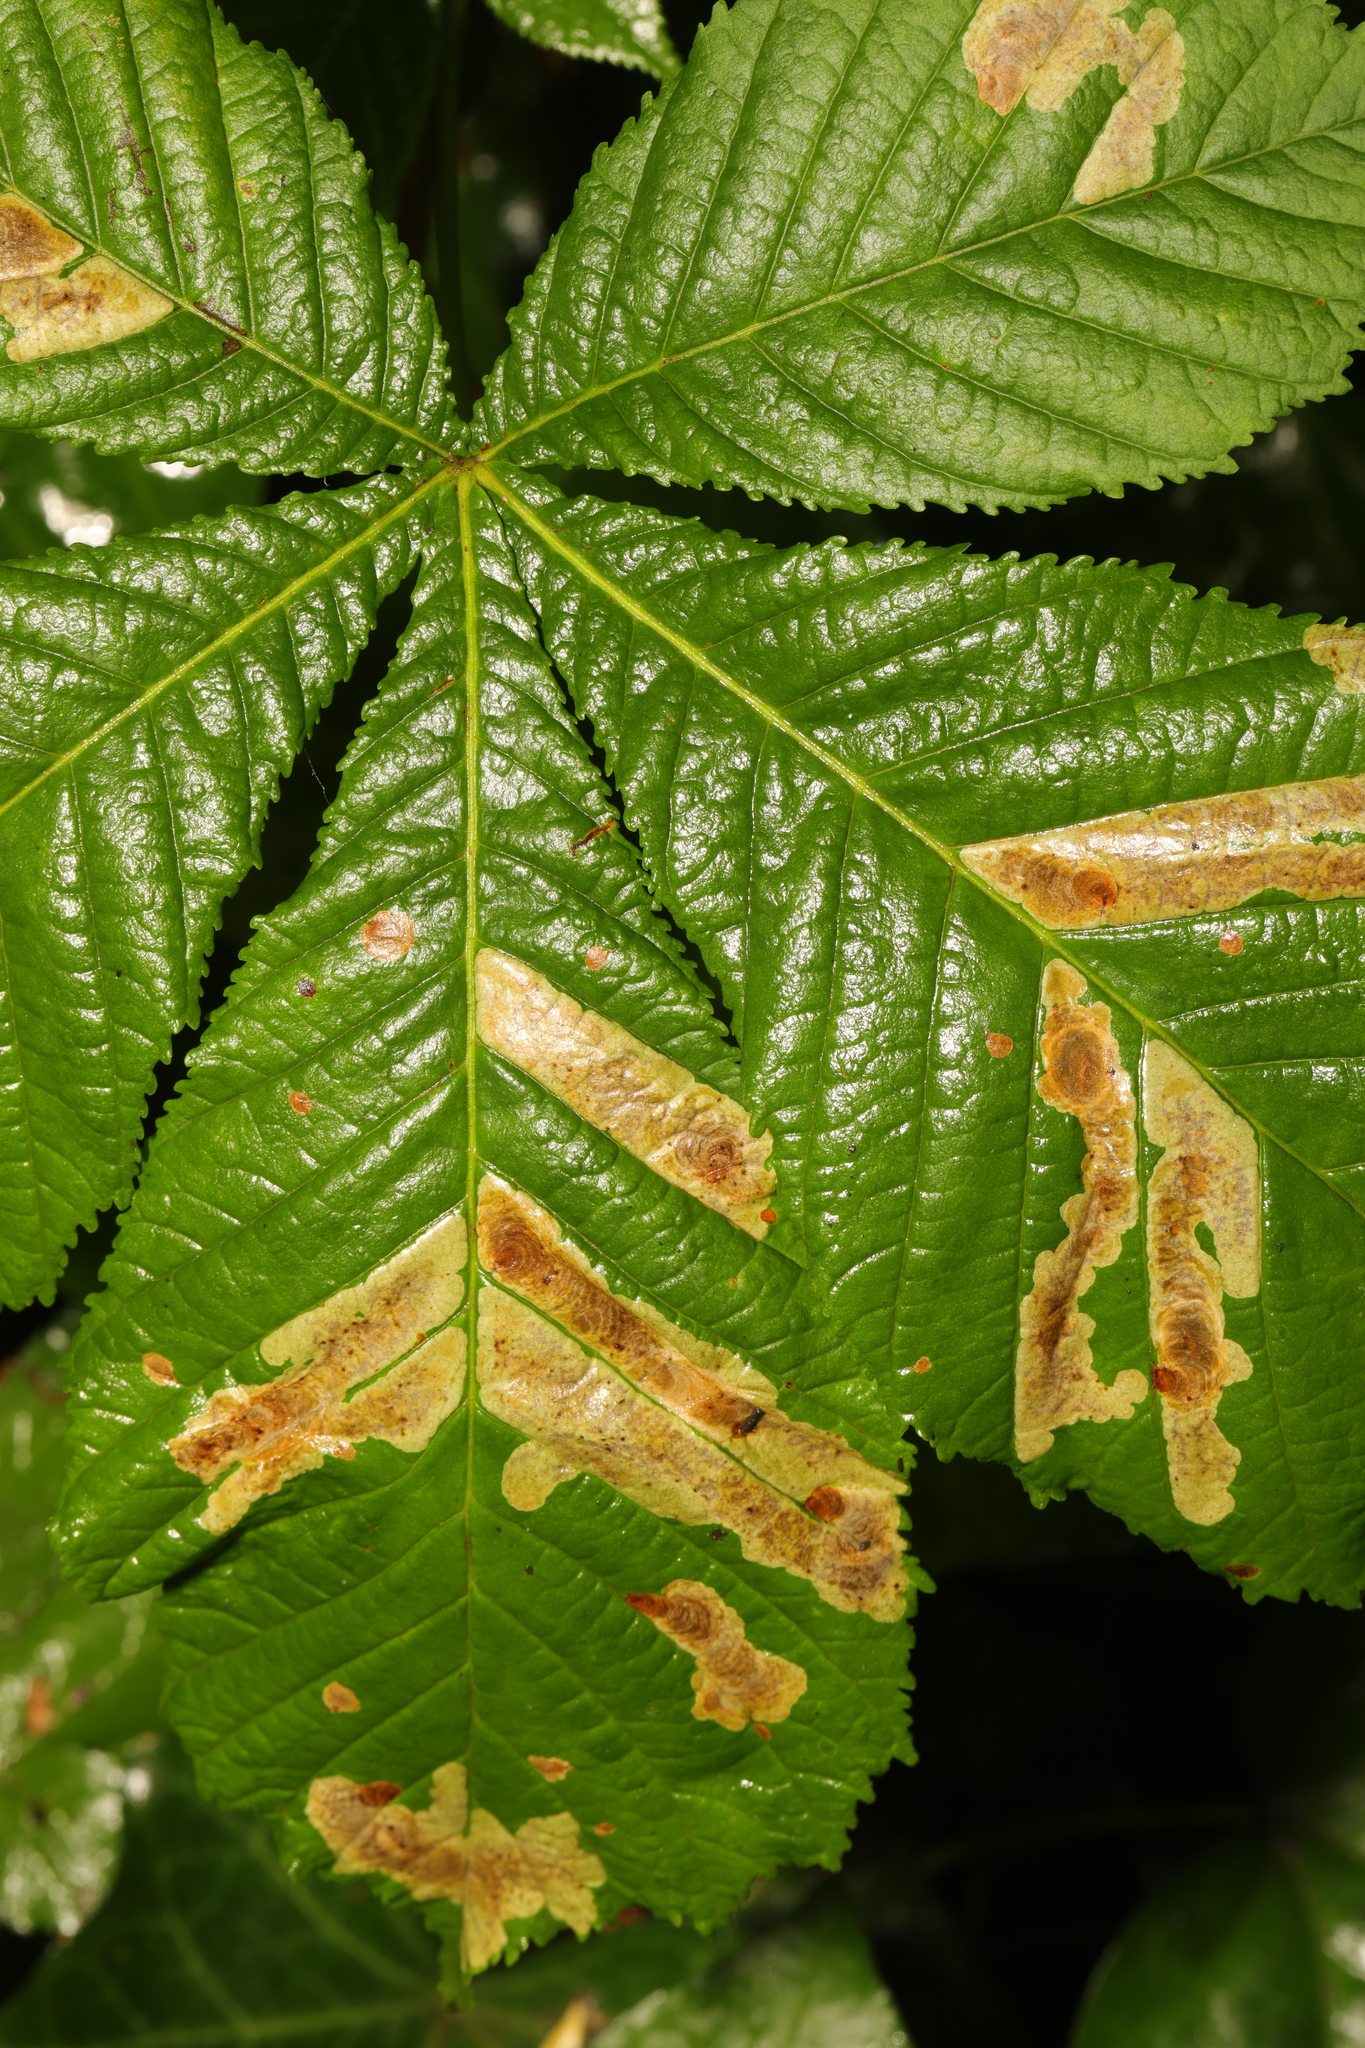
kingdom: Animalia
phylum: Arthropoda
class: Insecta
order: Lepidoptera
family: Gracillariidae
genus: Cameraria
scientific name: Cameraria ohridella
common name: Horse-chestnut leaf-miner
